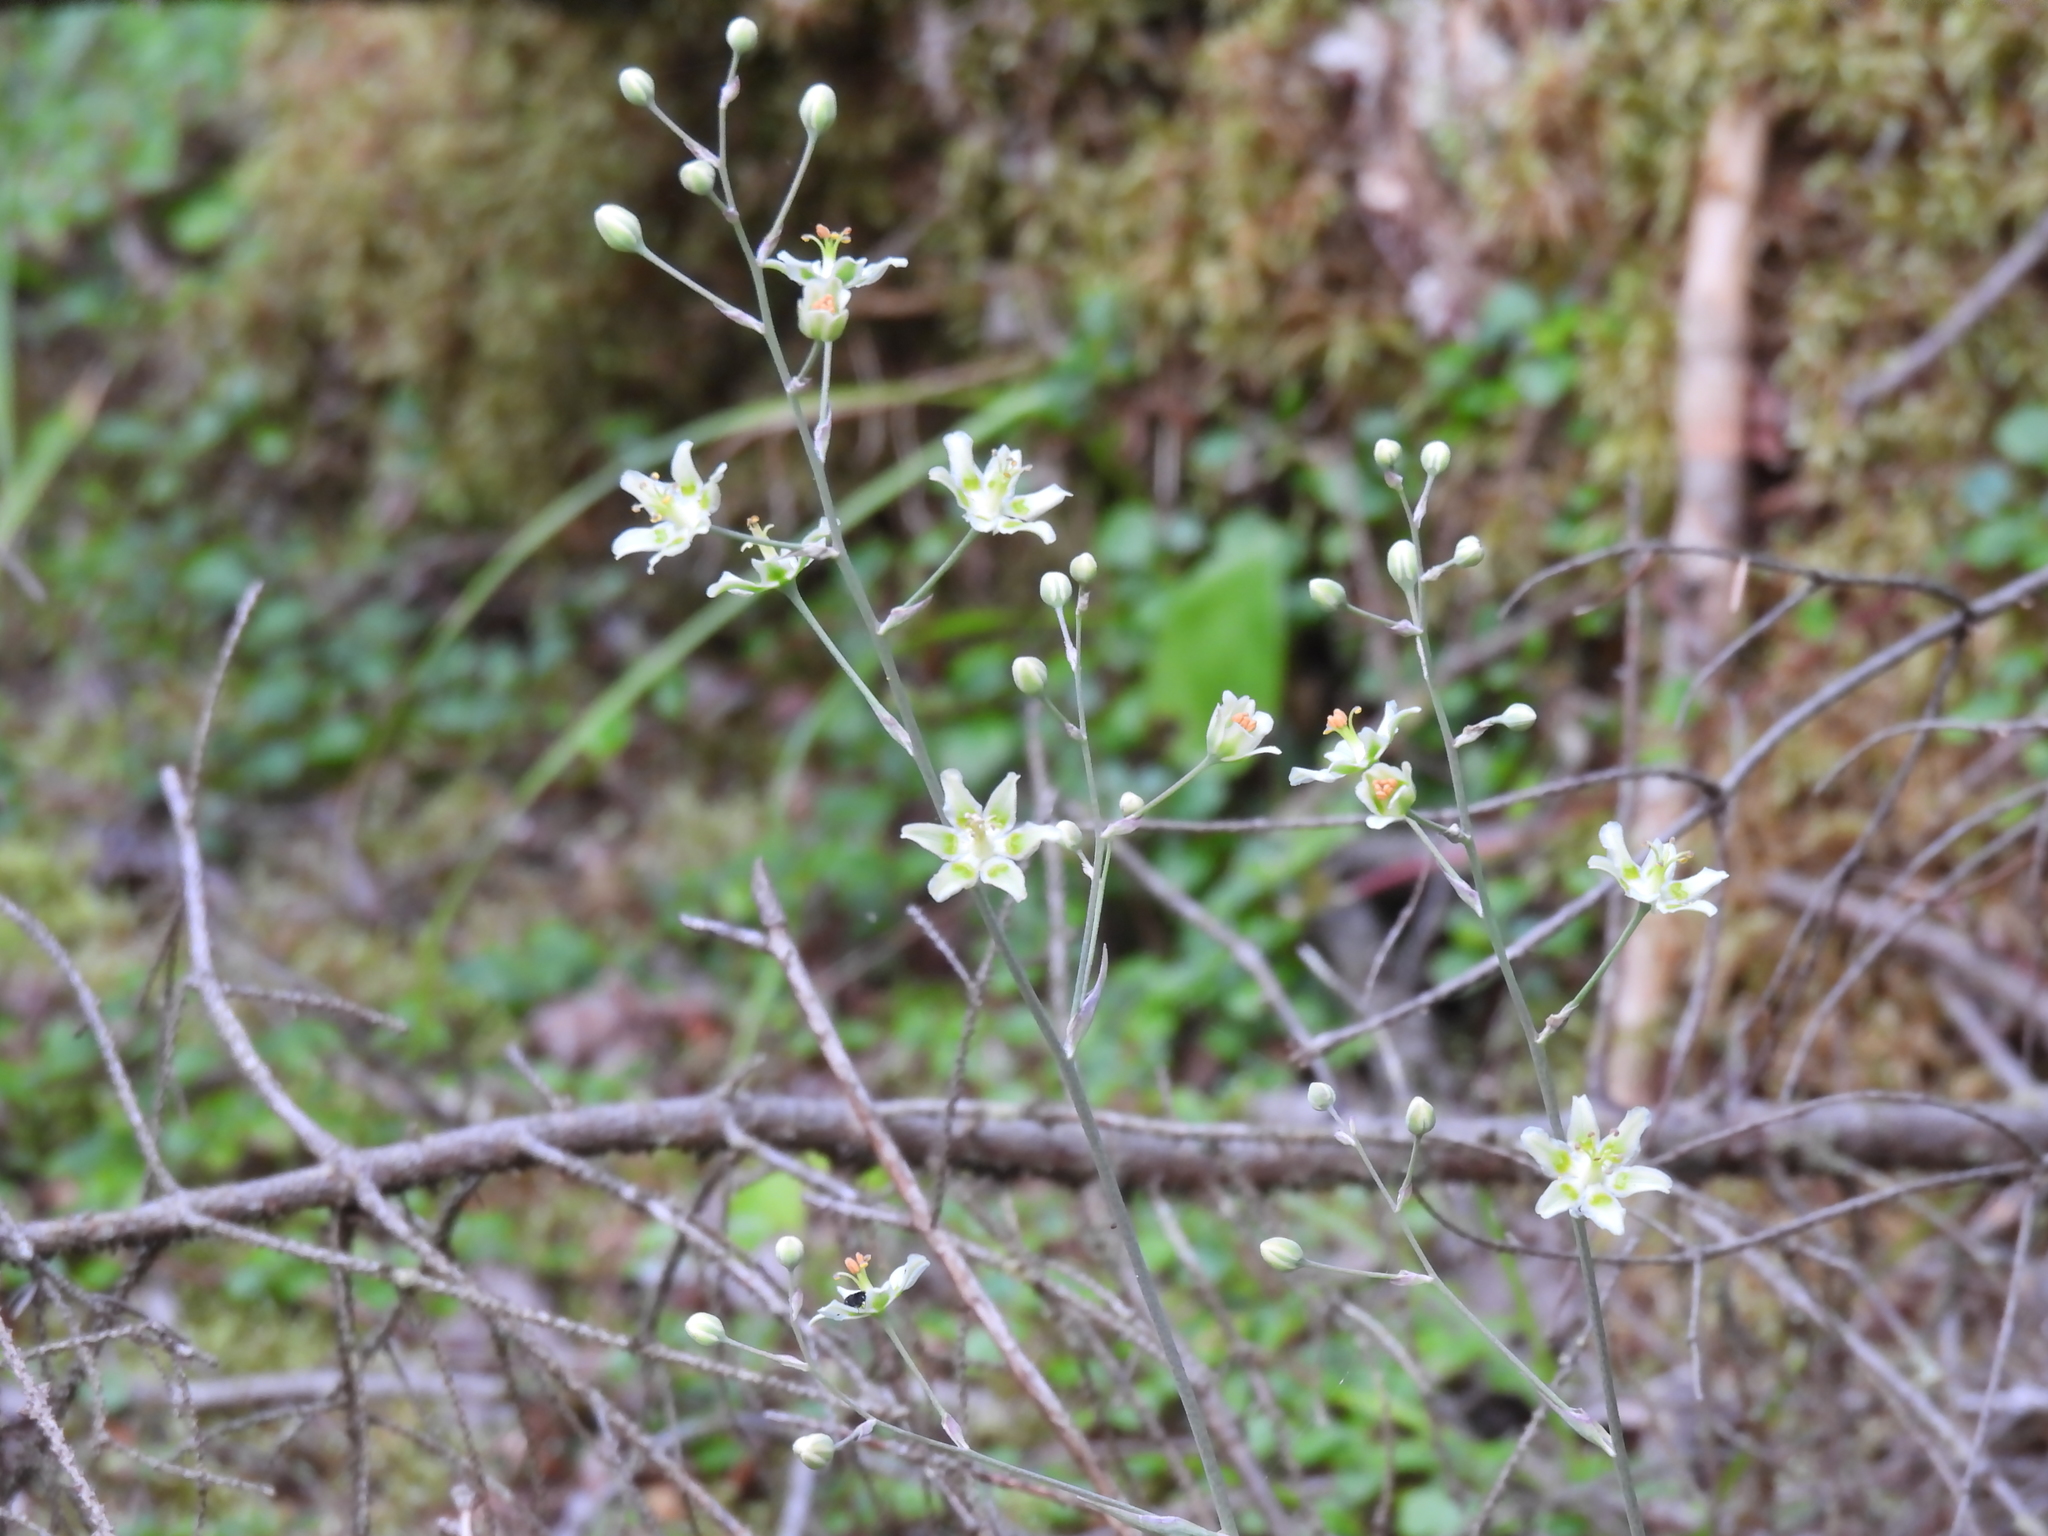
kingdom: Plantae
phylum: Tracheophyta
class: Liliopsida
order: Liliales
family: Melanthiaceae
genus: Anticlea
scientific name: Anticlea elegans
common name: Mountain death camas
